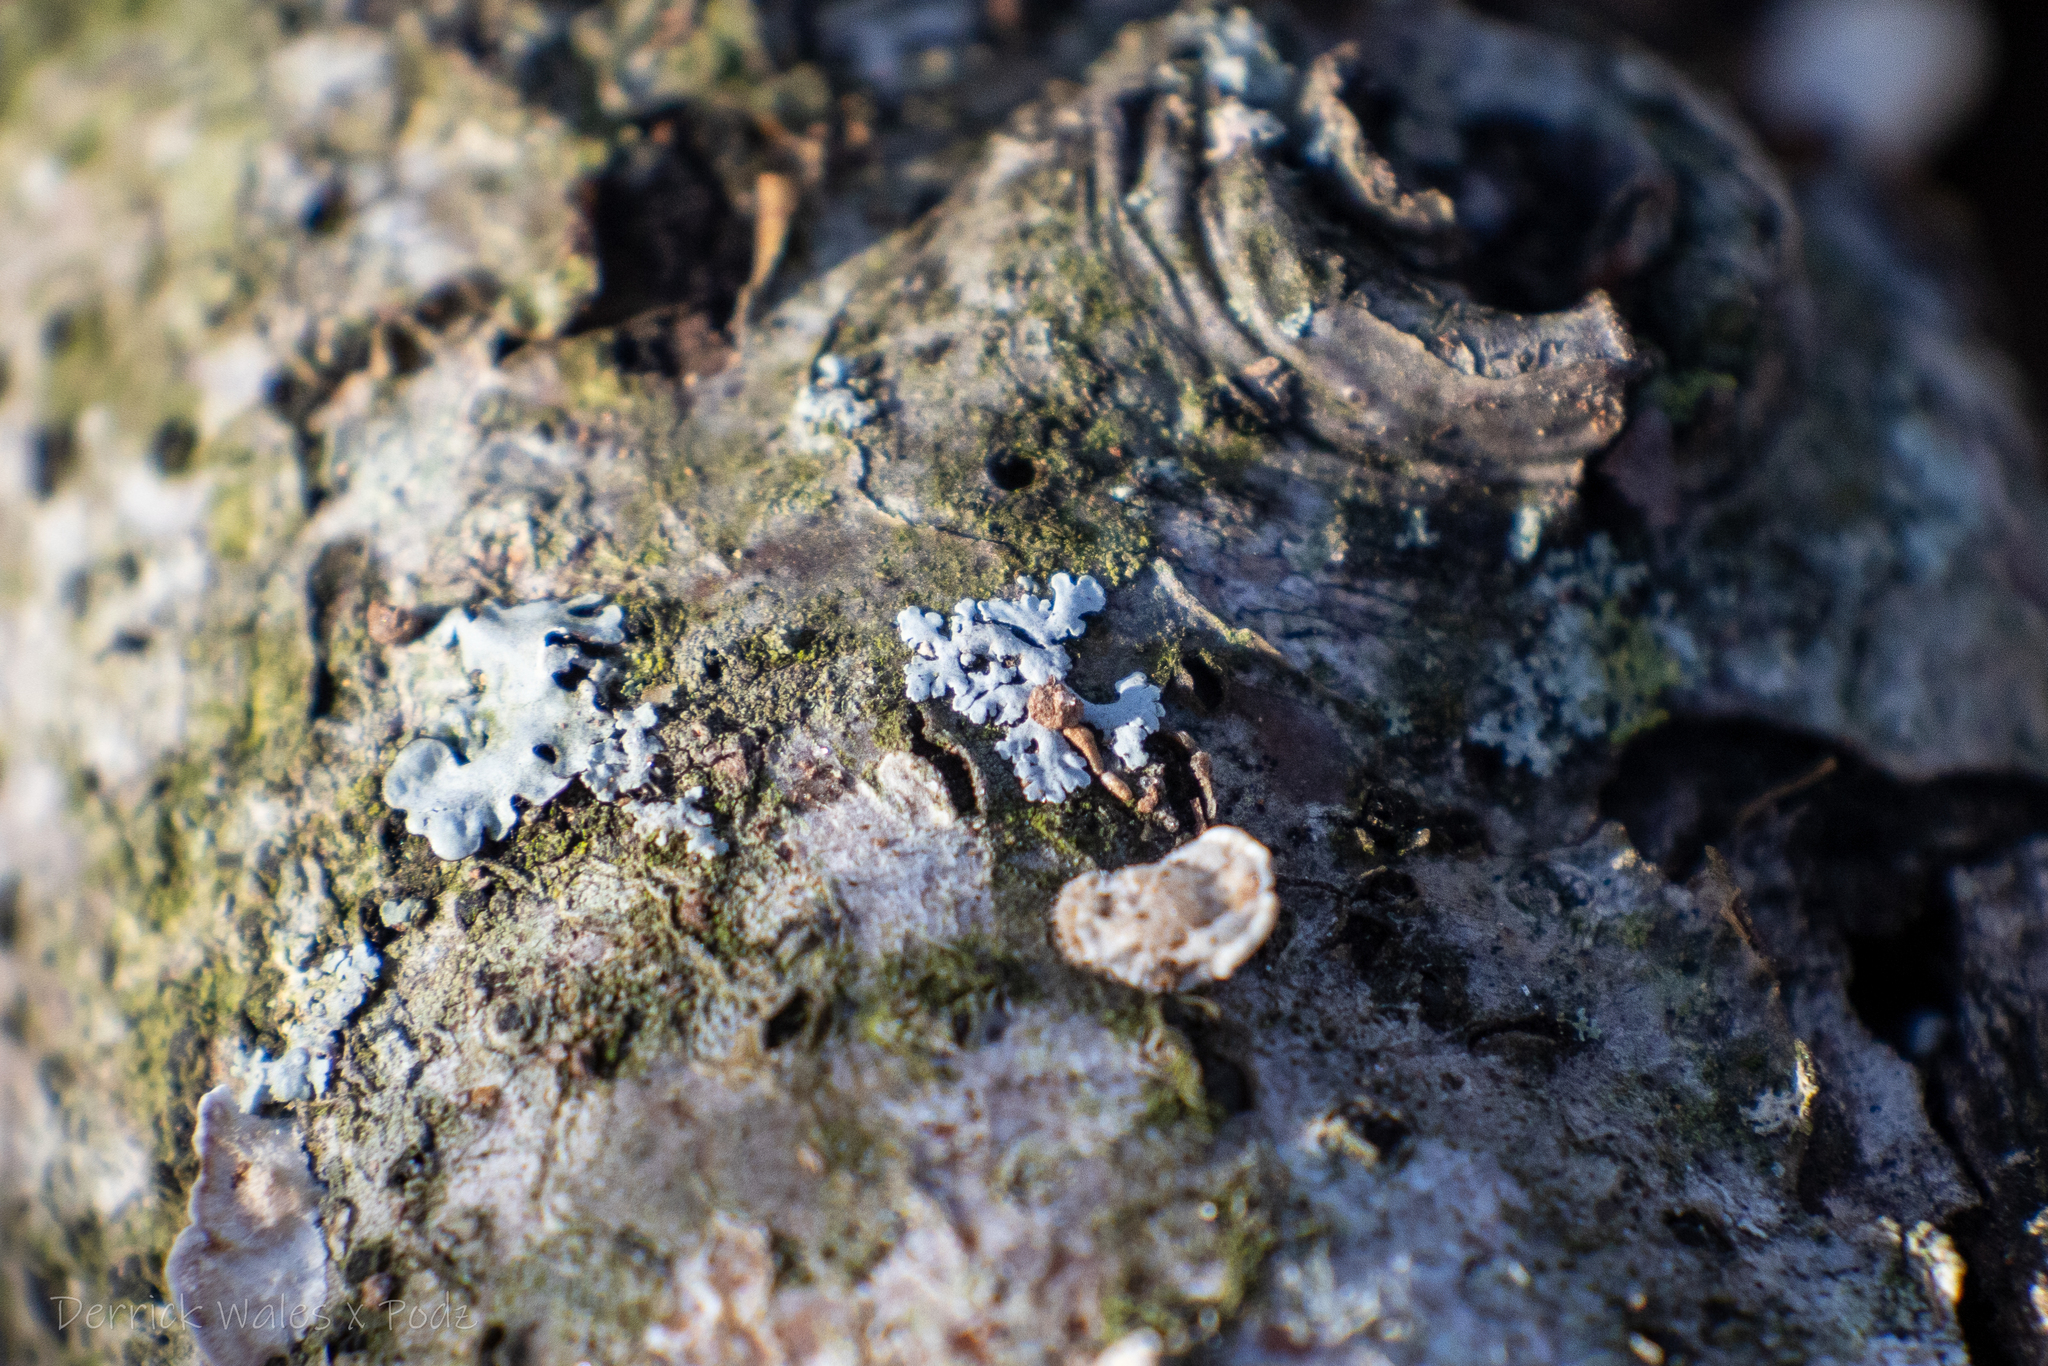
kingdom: Fungi
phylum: Ascomycota
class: Lecanoromycetes
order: Caliciales
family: Physciaceae
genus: Physcia
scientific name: Physcia
